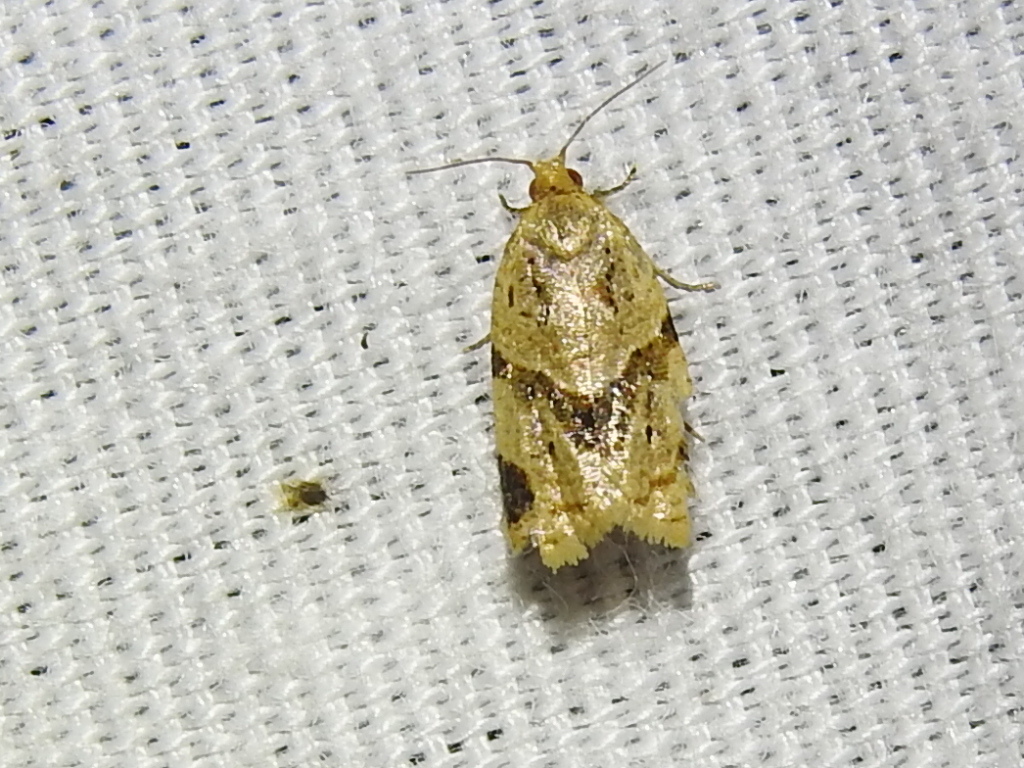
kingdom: Animalia
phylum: Arthropoda
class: Insecta
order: Lepidoptera
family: Tortricidae
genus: Clepsis
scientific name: Clepsis peritana
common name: Garden tortrix
